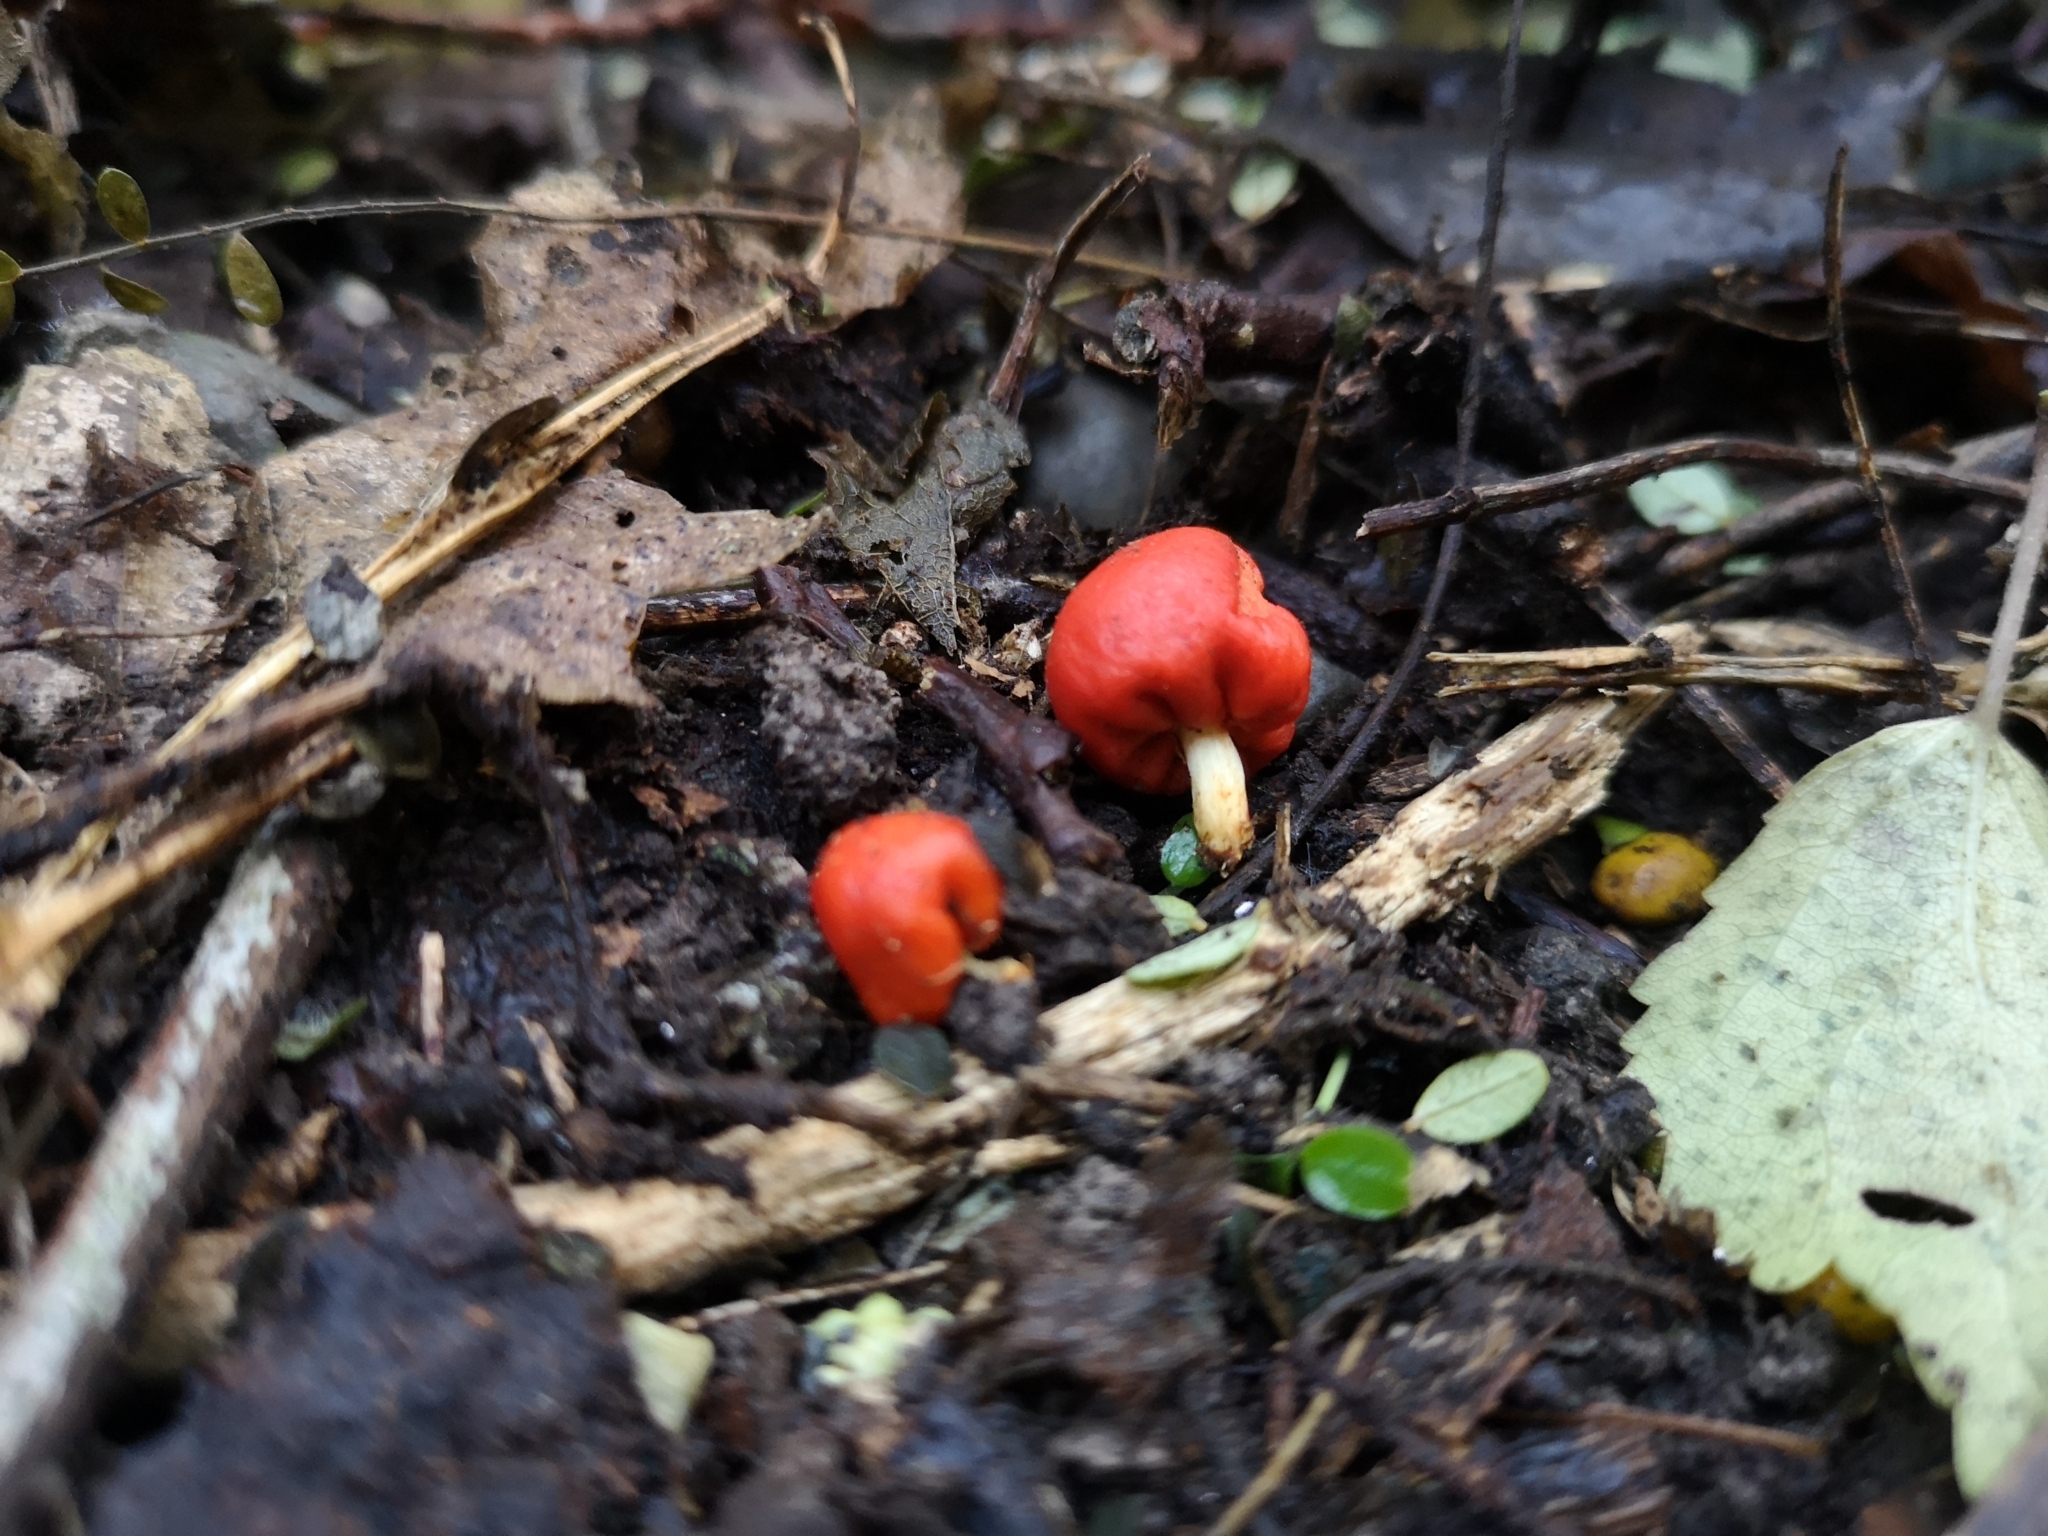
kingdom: Fungi
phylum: Basidiomycota
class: Agaricomycetes
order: Agaricales
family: Strophariaceae
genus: Leratiomyces
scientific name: Leratiomyces erythrocephalus
